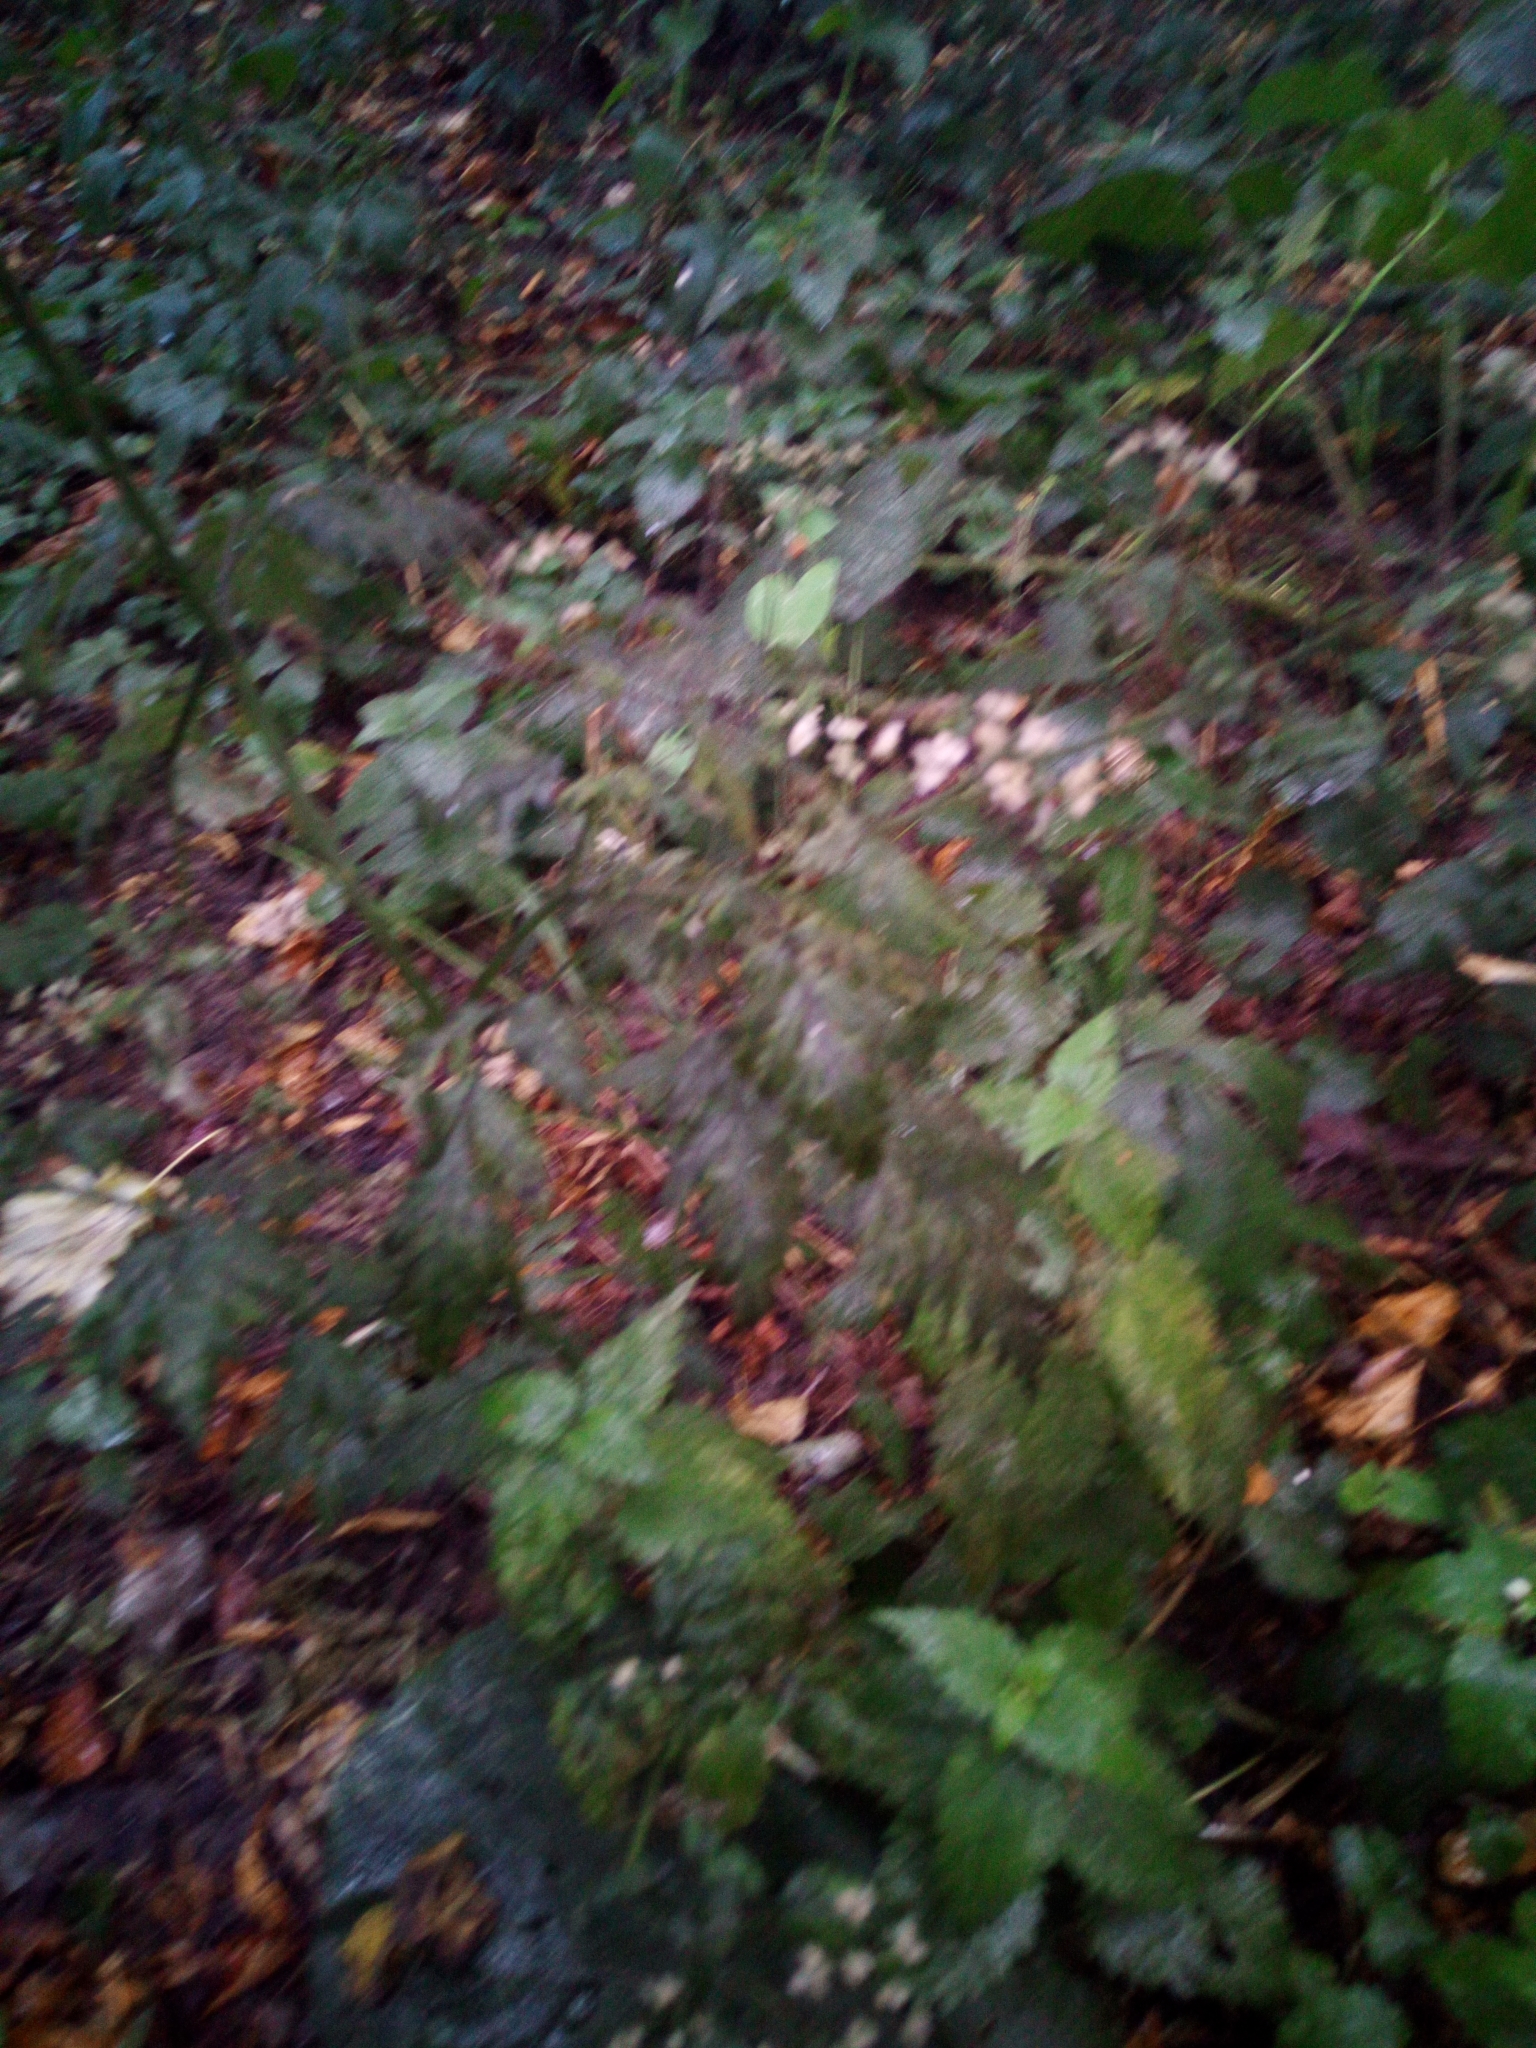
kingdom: Plantae
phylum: Tracheophyta
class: Magnoliopsida
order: Apiales
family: Apiaceae
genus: Torilis
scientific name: Torilis japonica
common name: Upright hedge-parsley
